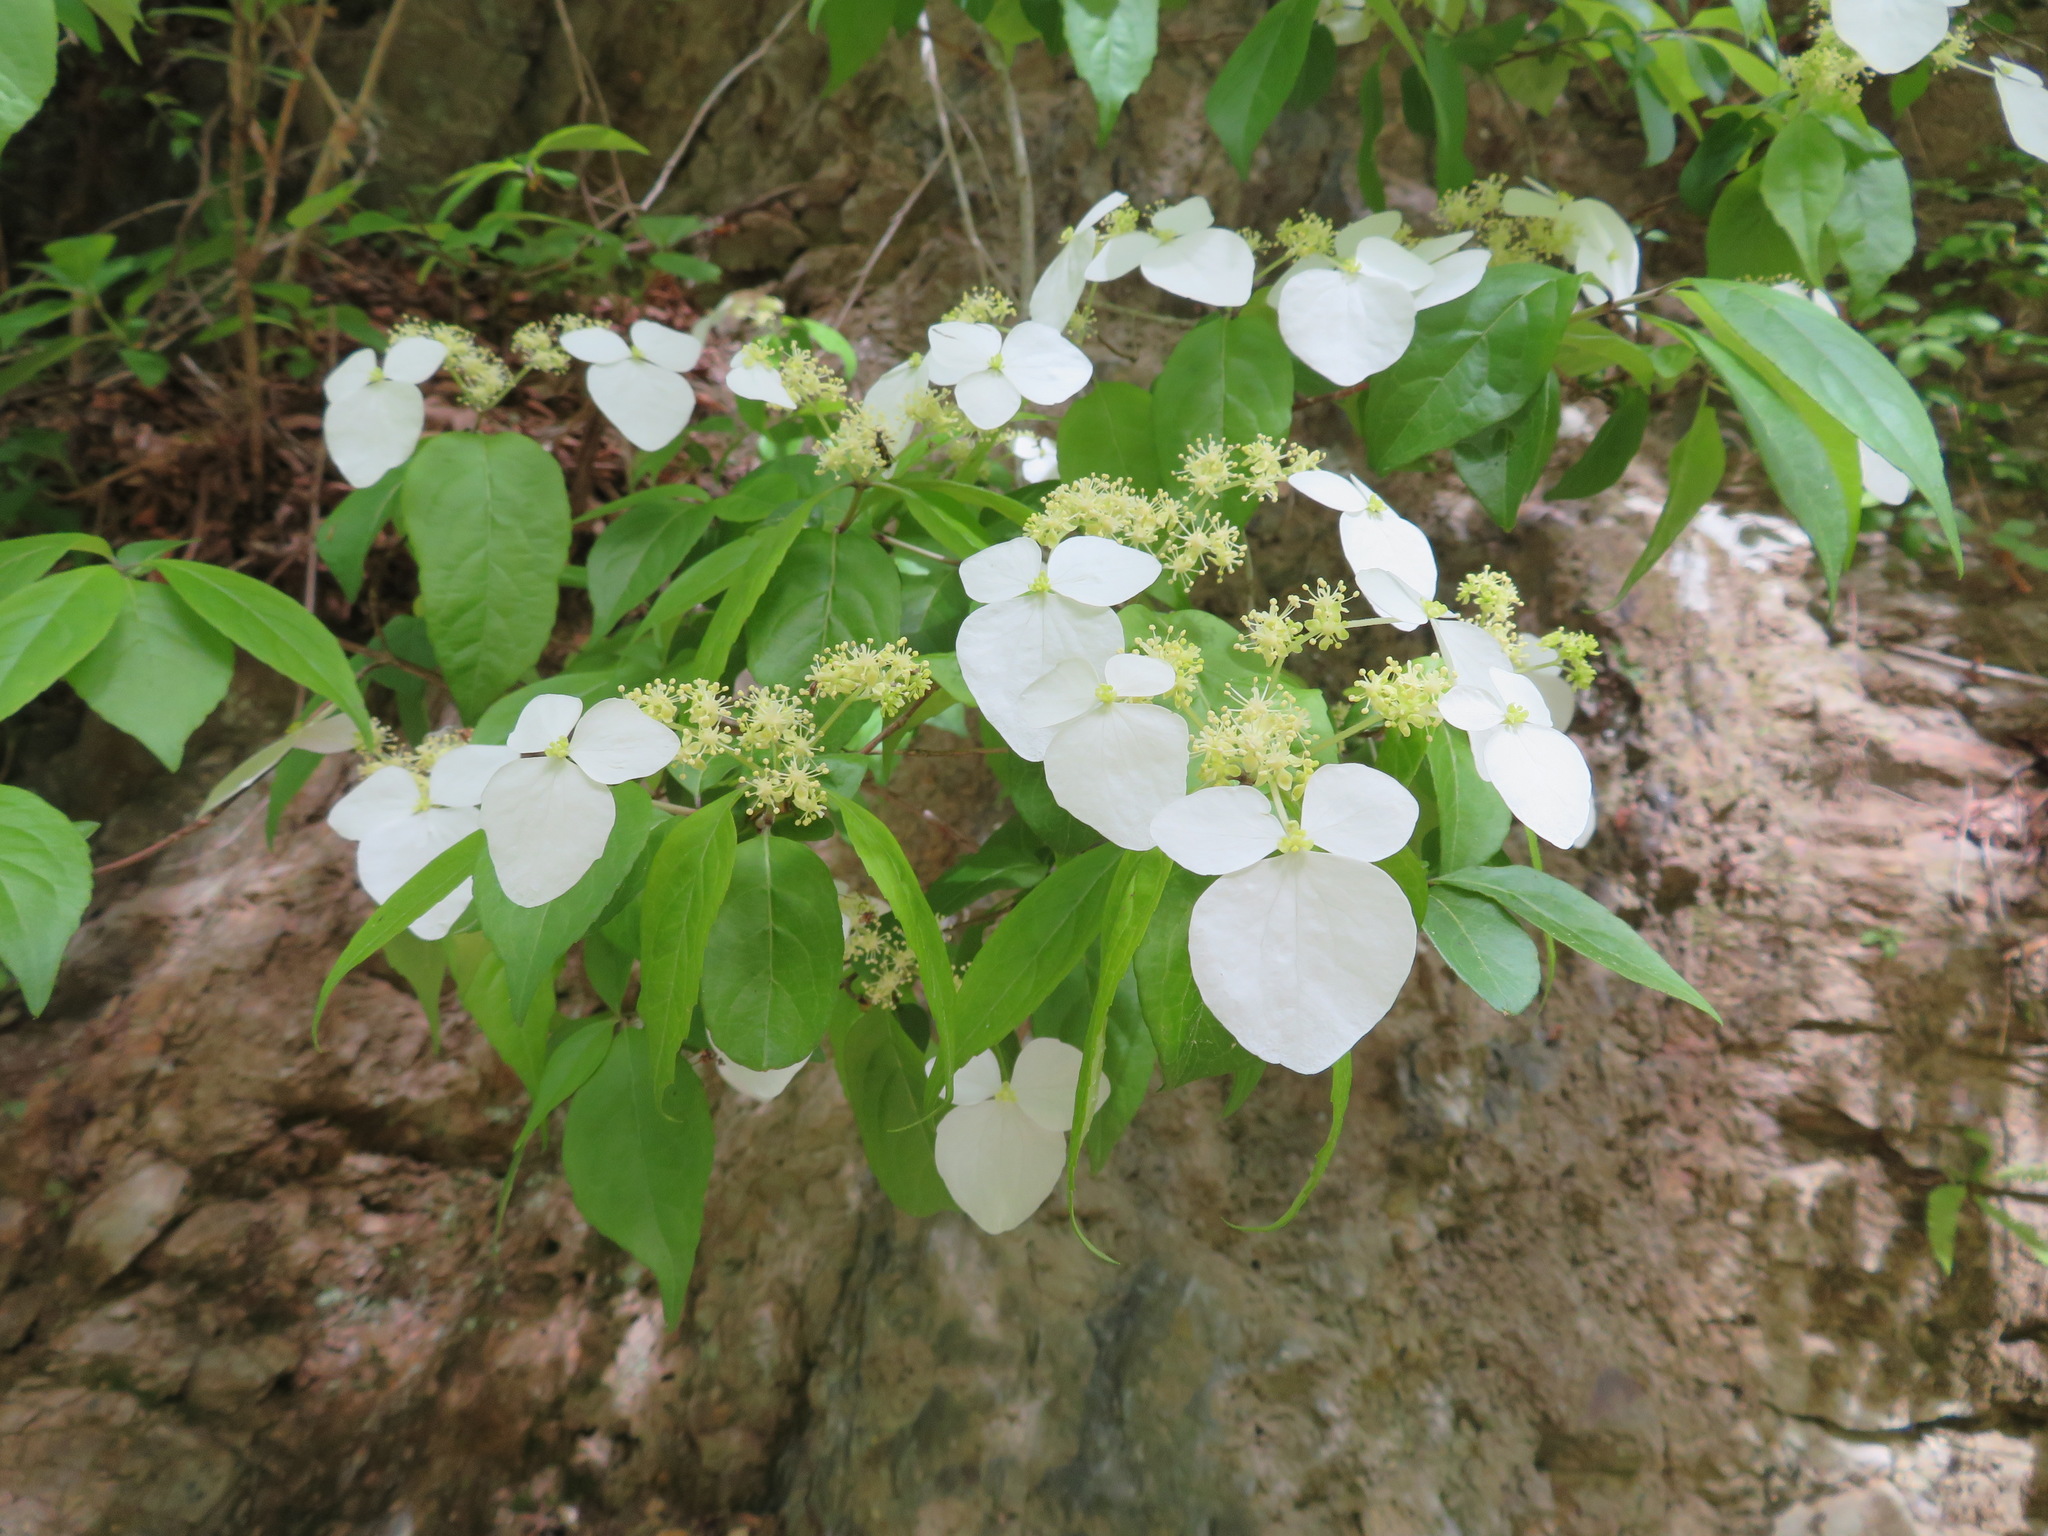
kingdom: Plantae
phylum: Tracheophyta
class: Magnoliopsida
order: Cornales
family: Hydrangeaceae
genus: Hydrangea
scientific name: Hydrangea scandens
